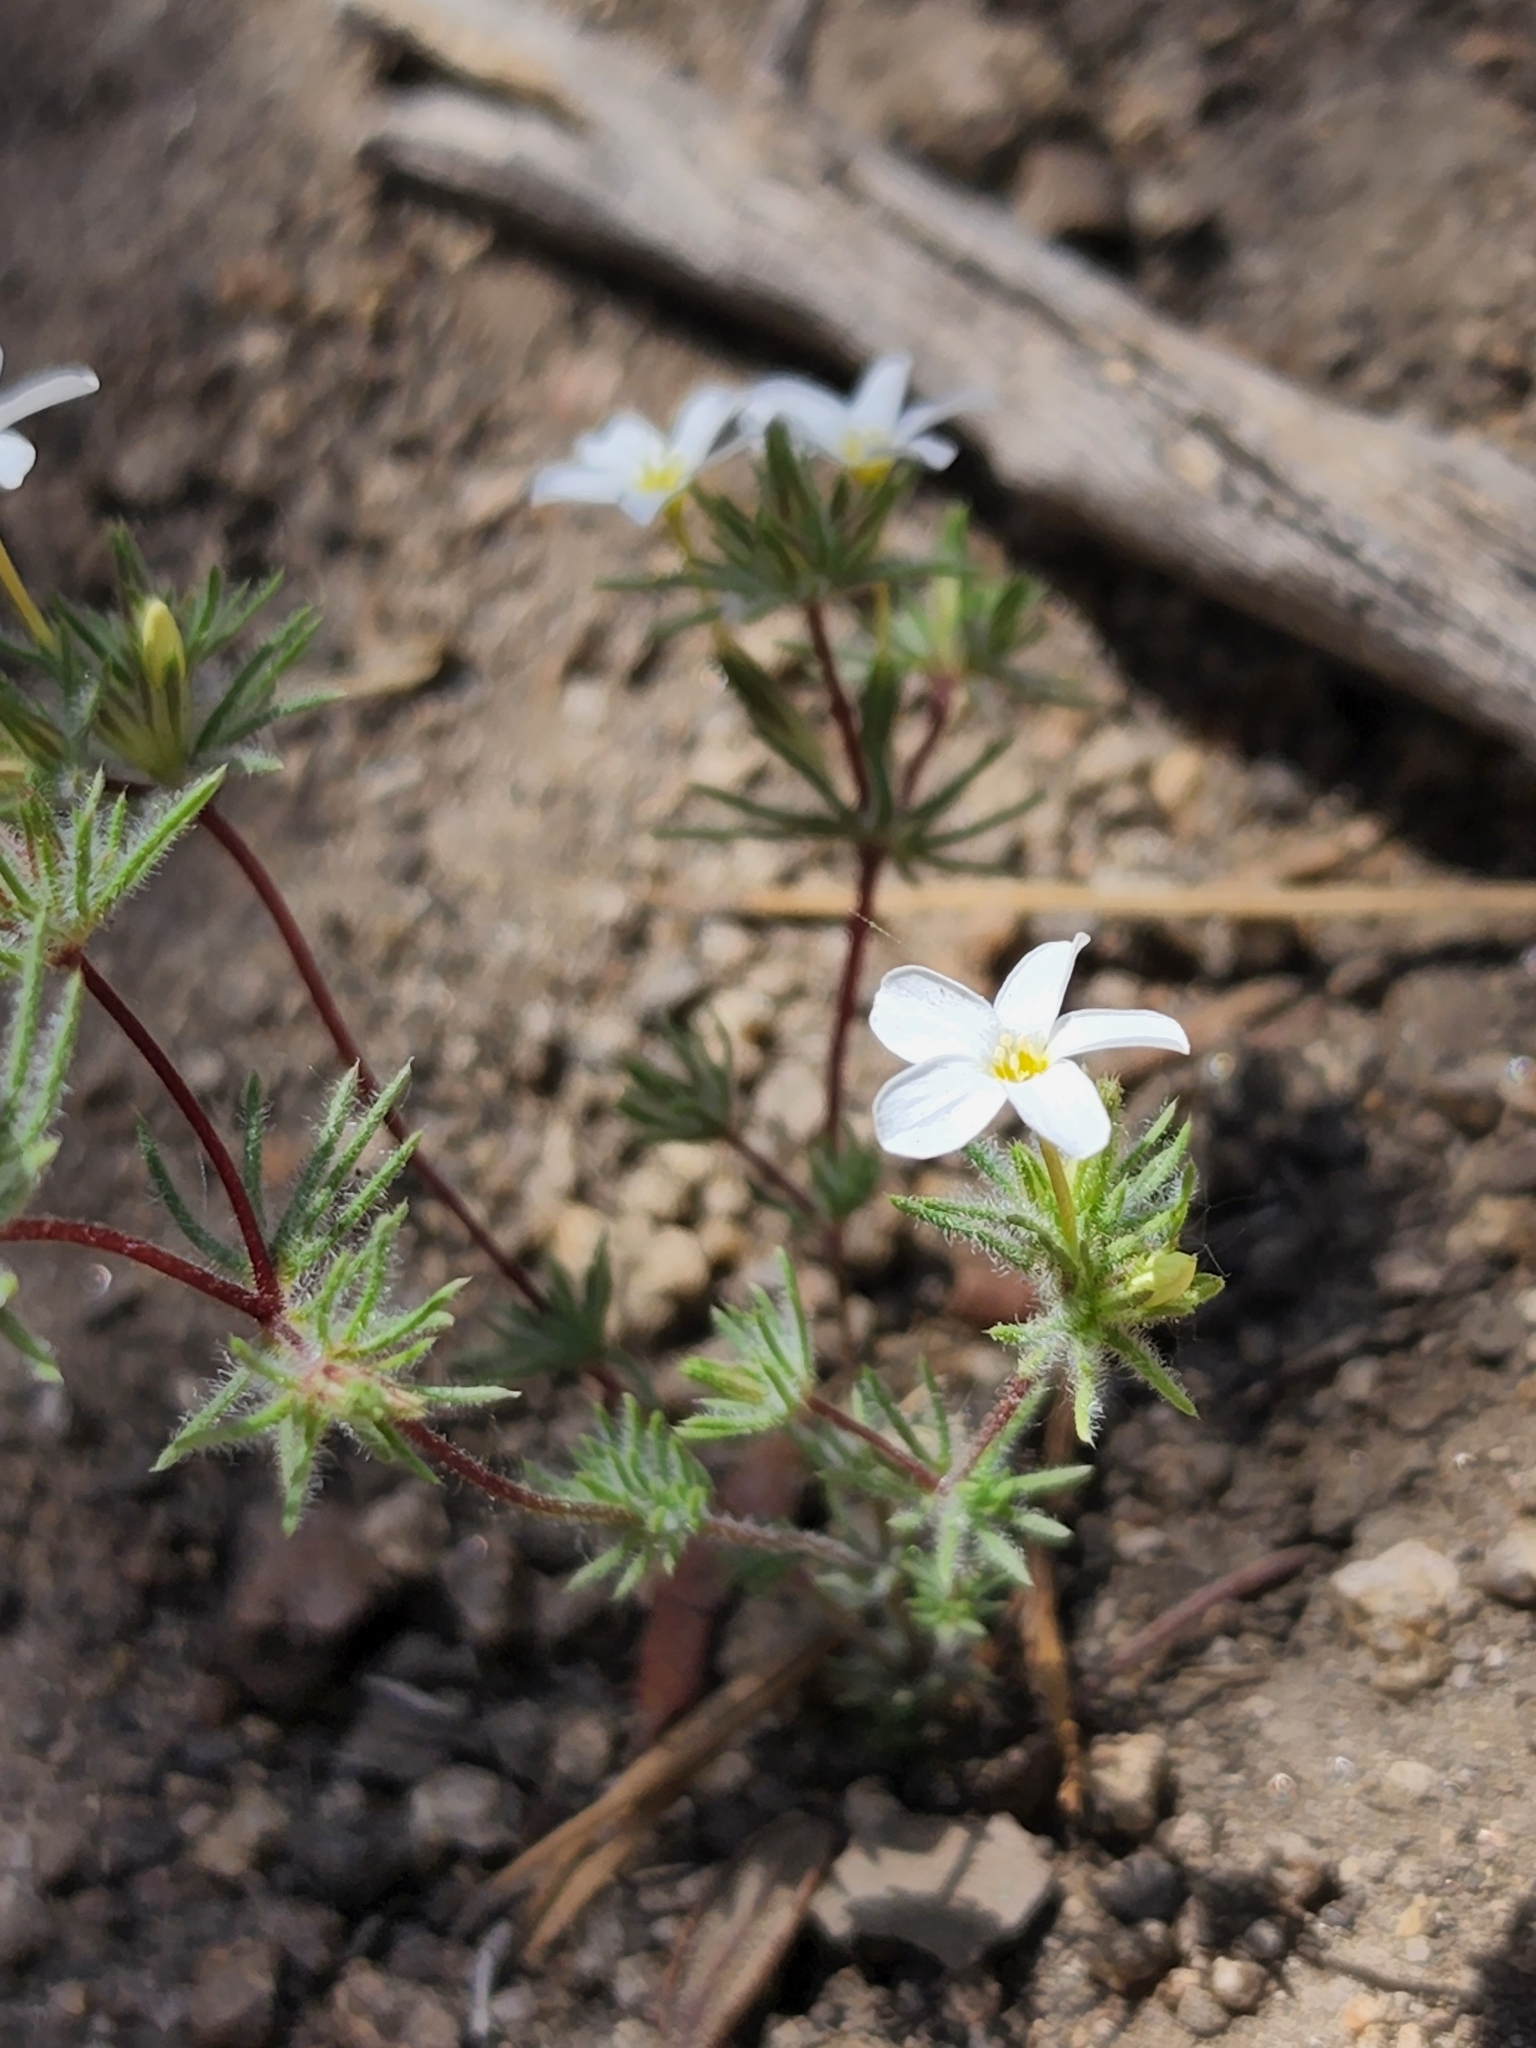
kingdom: Plantae
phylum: Tracheophyta
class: Magnoliopsida
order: Ericales
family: Polemoniaceae
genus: Leptosiphon
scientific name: Leptosiphon breviculus
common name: Mojave linanthus
